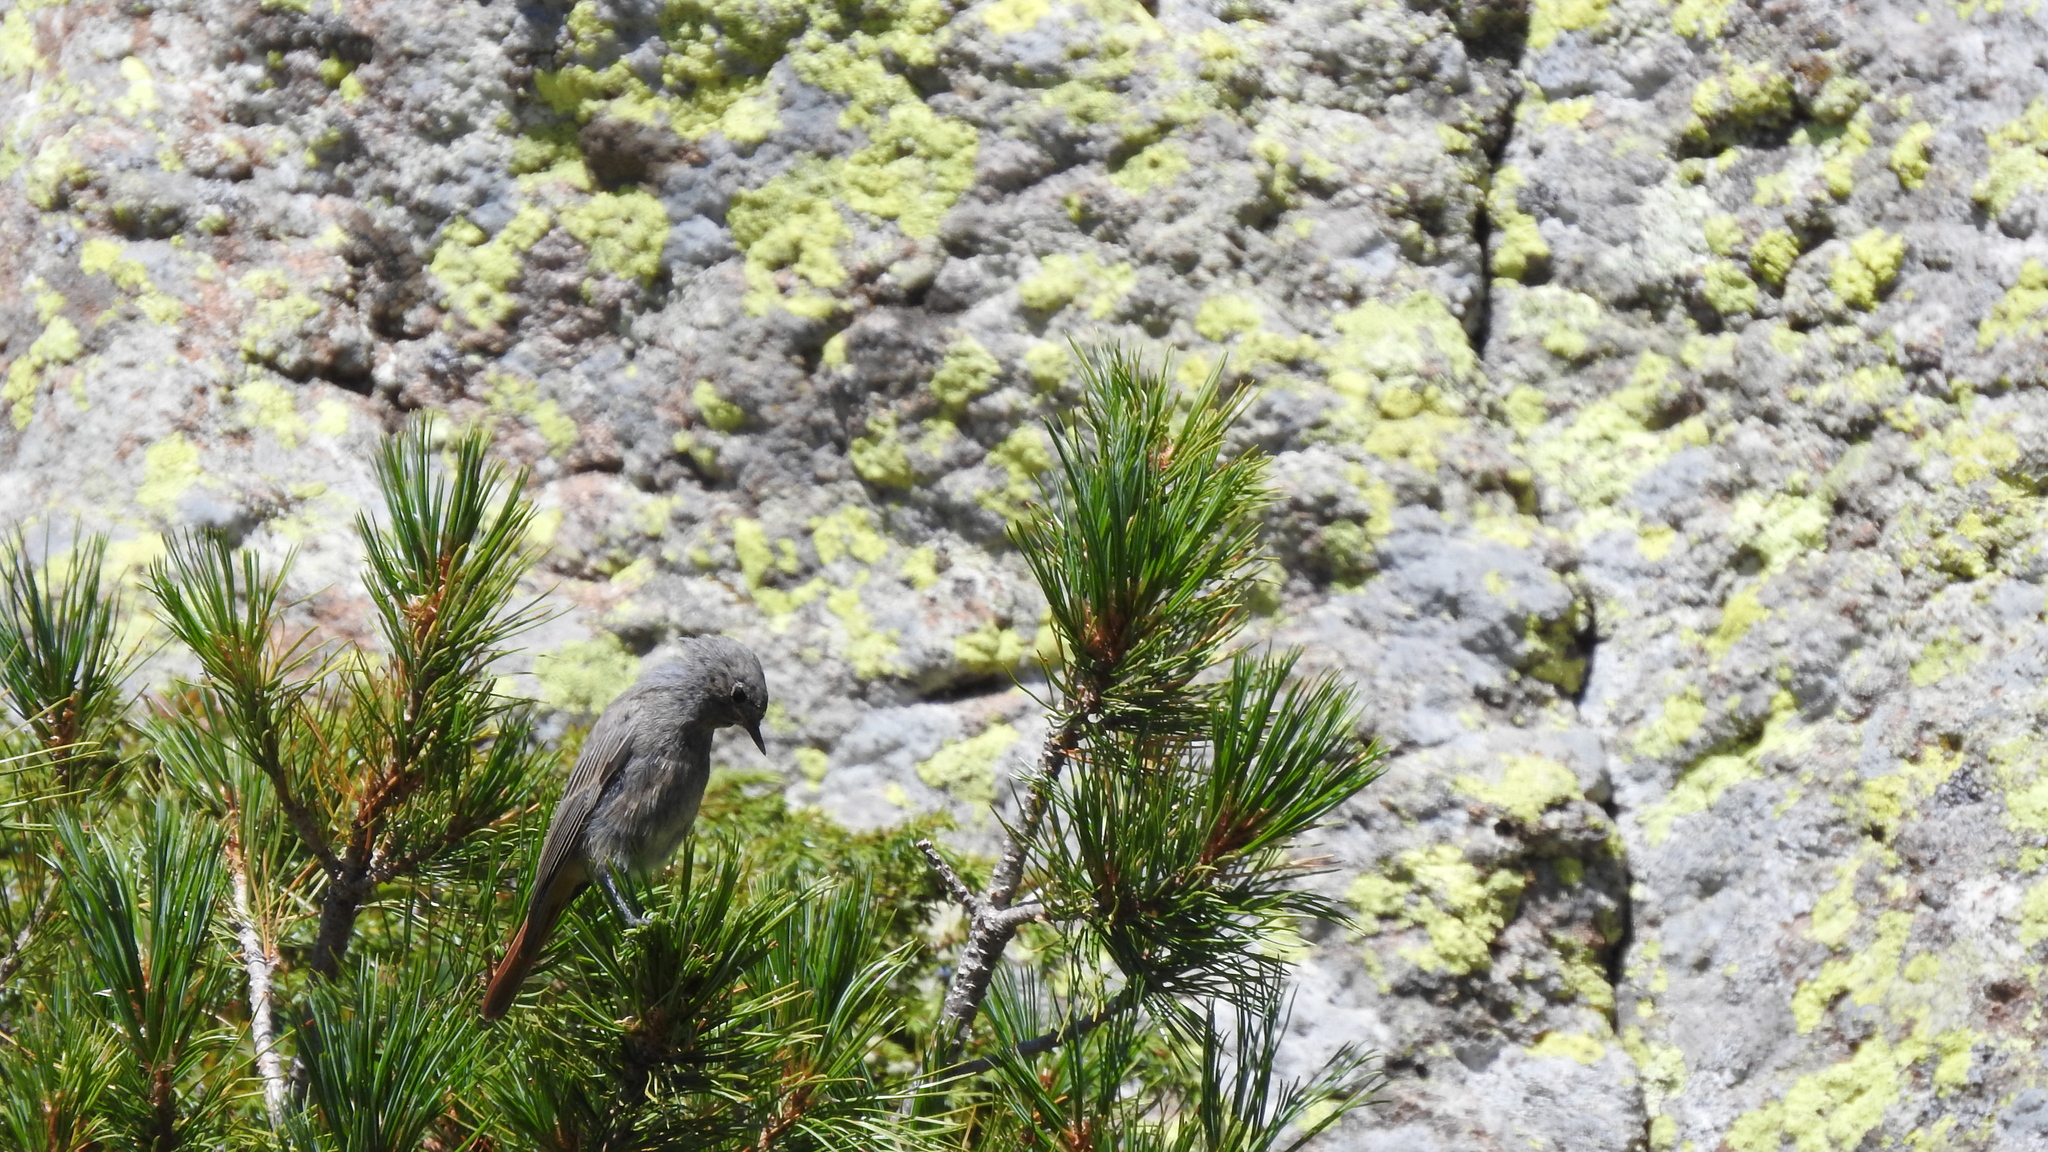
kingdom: Animalia
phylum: Chordata
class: Aves
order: Passeriformes
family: Muscicapidae
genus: Phoenicurus
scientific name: Phoenicurus ochruros
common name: Black redstart
